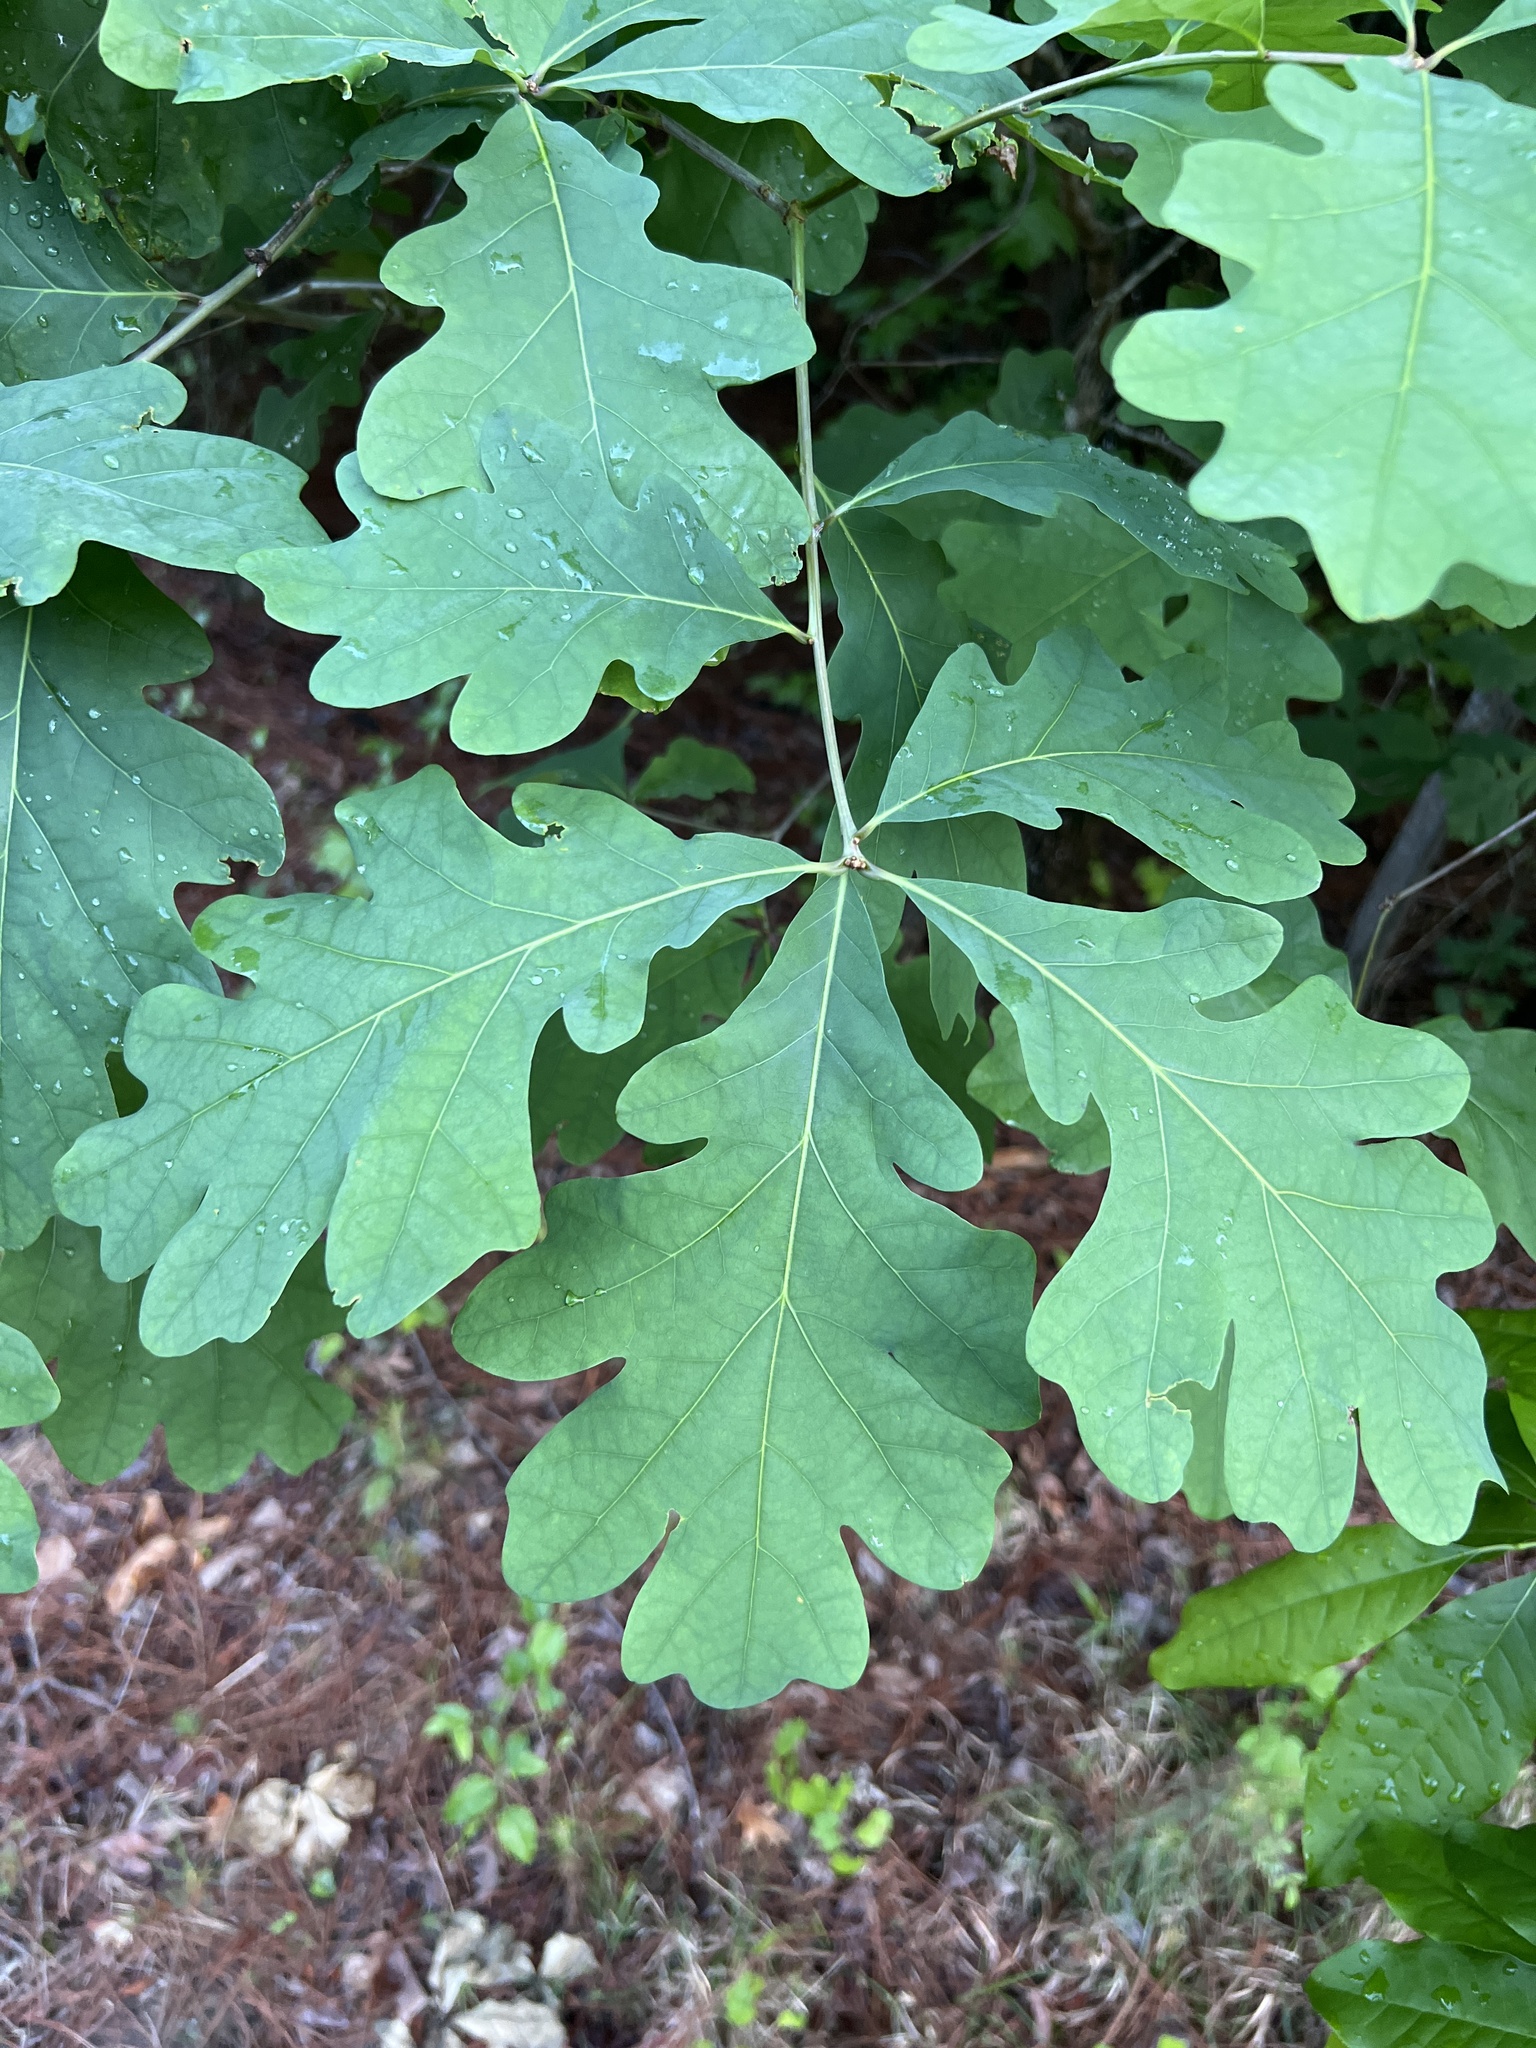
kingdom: Plantae
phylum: Tracheophyta
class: Magnoliopsida
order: Fagales
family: Fagaceae
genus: Quercus
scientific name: Quercus alba
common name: White oak
